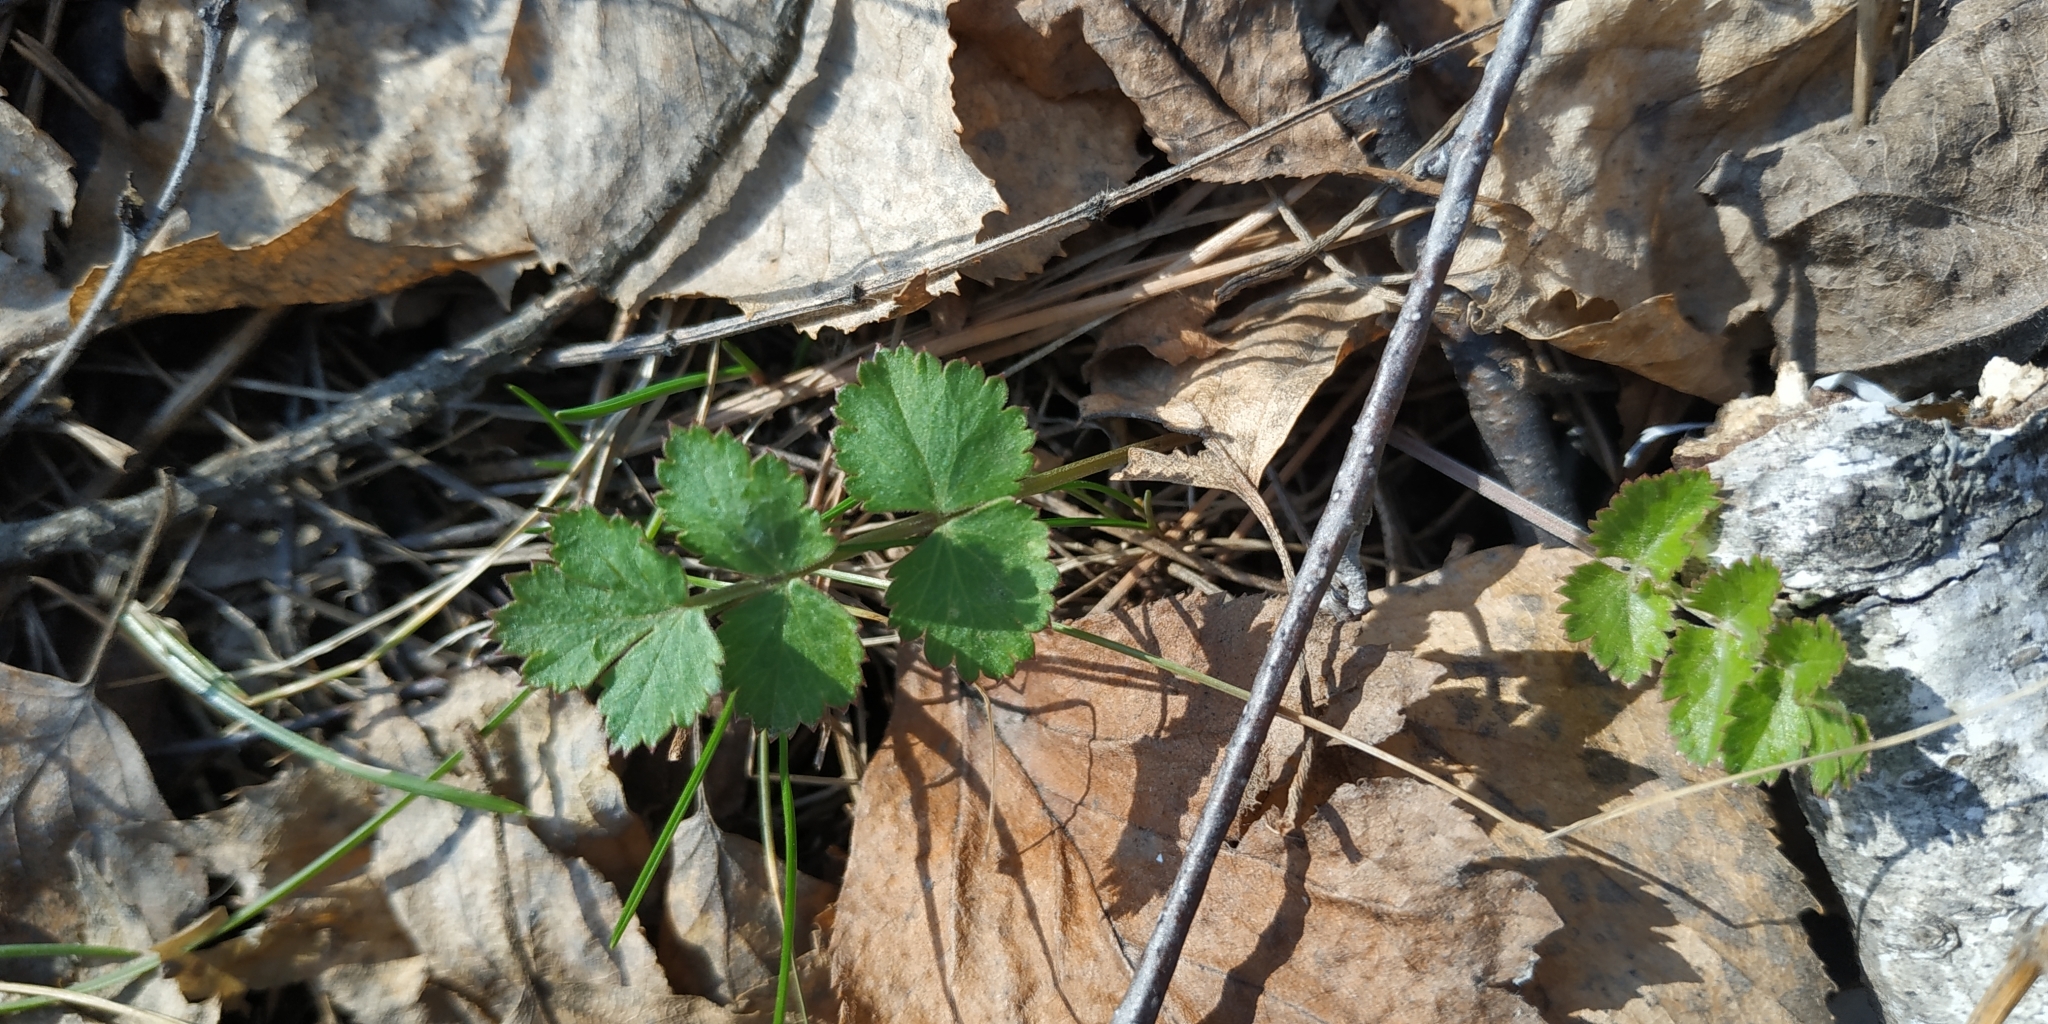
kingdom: Plantae
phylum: Tracheophyta
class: Magnoliopsida
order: Apiales
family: Apiaceae
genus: Pimpinella
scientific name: Pimpinella saxifraga
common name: Burnet-saxifrage
